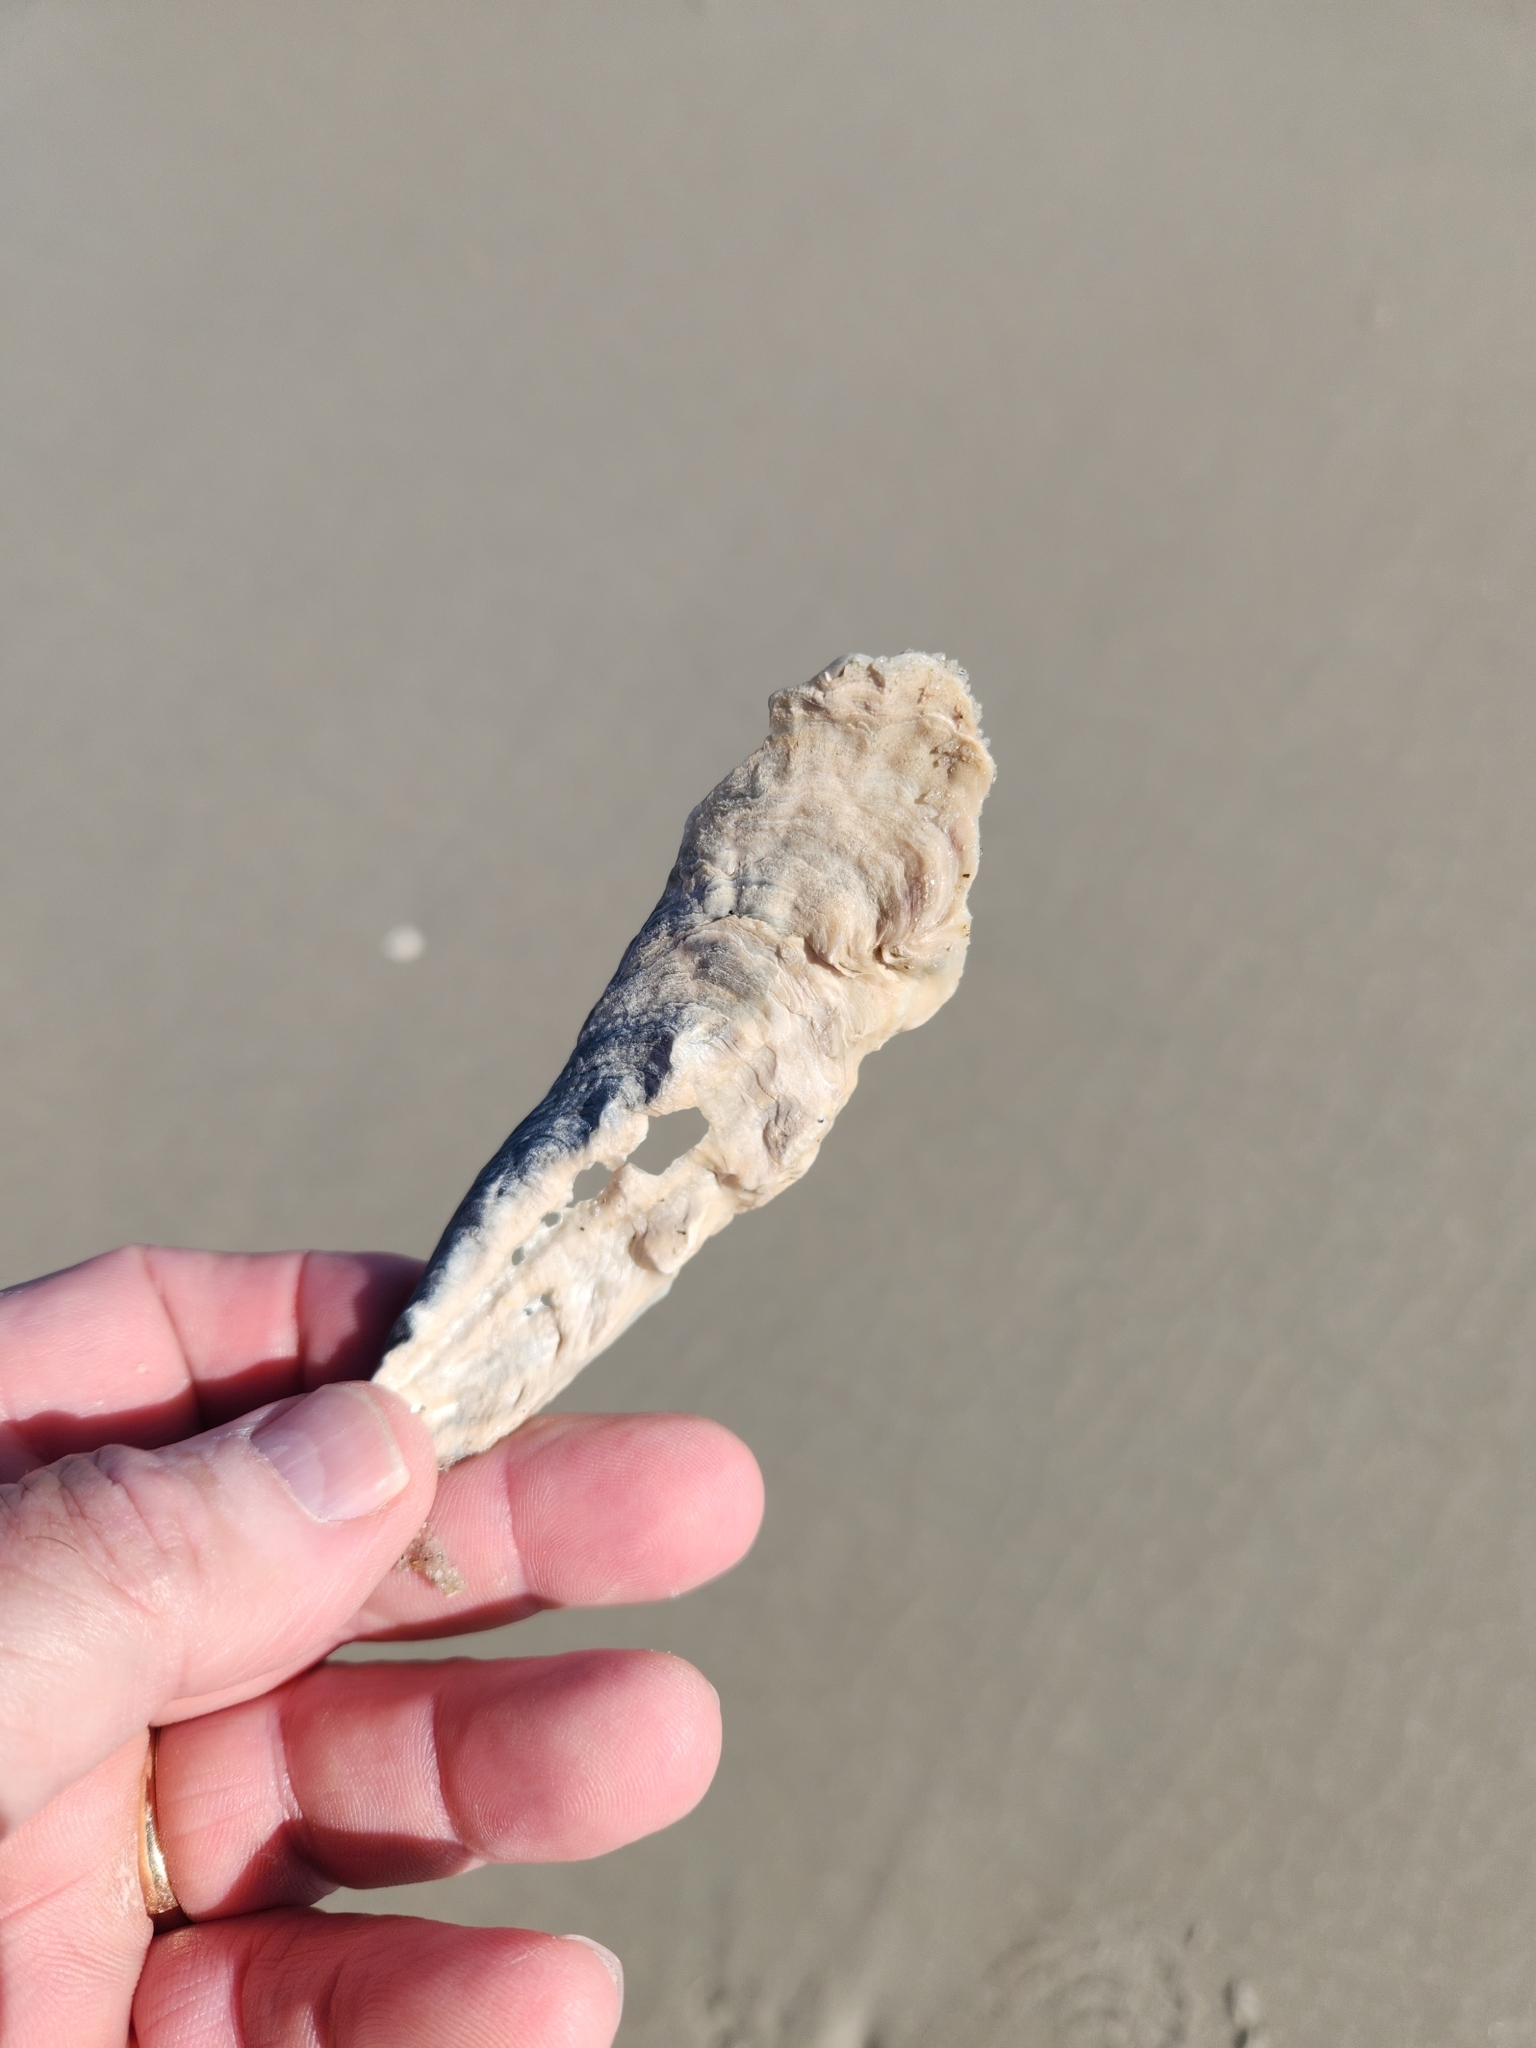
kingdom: Animalia
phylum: Mollusca
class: Bivalvia
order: Ostreida
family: Ostreidae
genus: Crassostrea
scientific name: Crassostrea virginica
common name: American oyster
